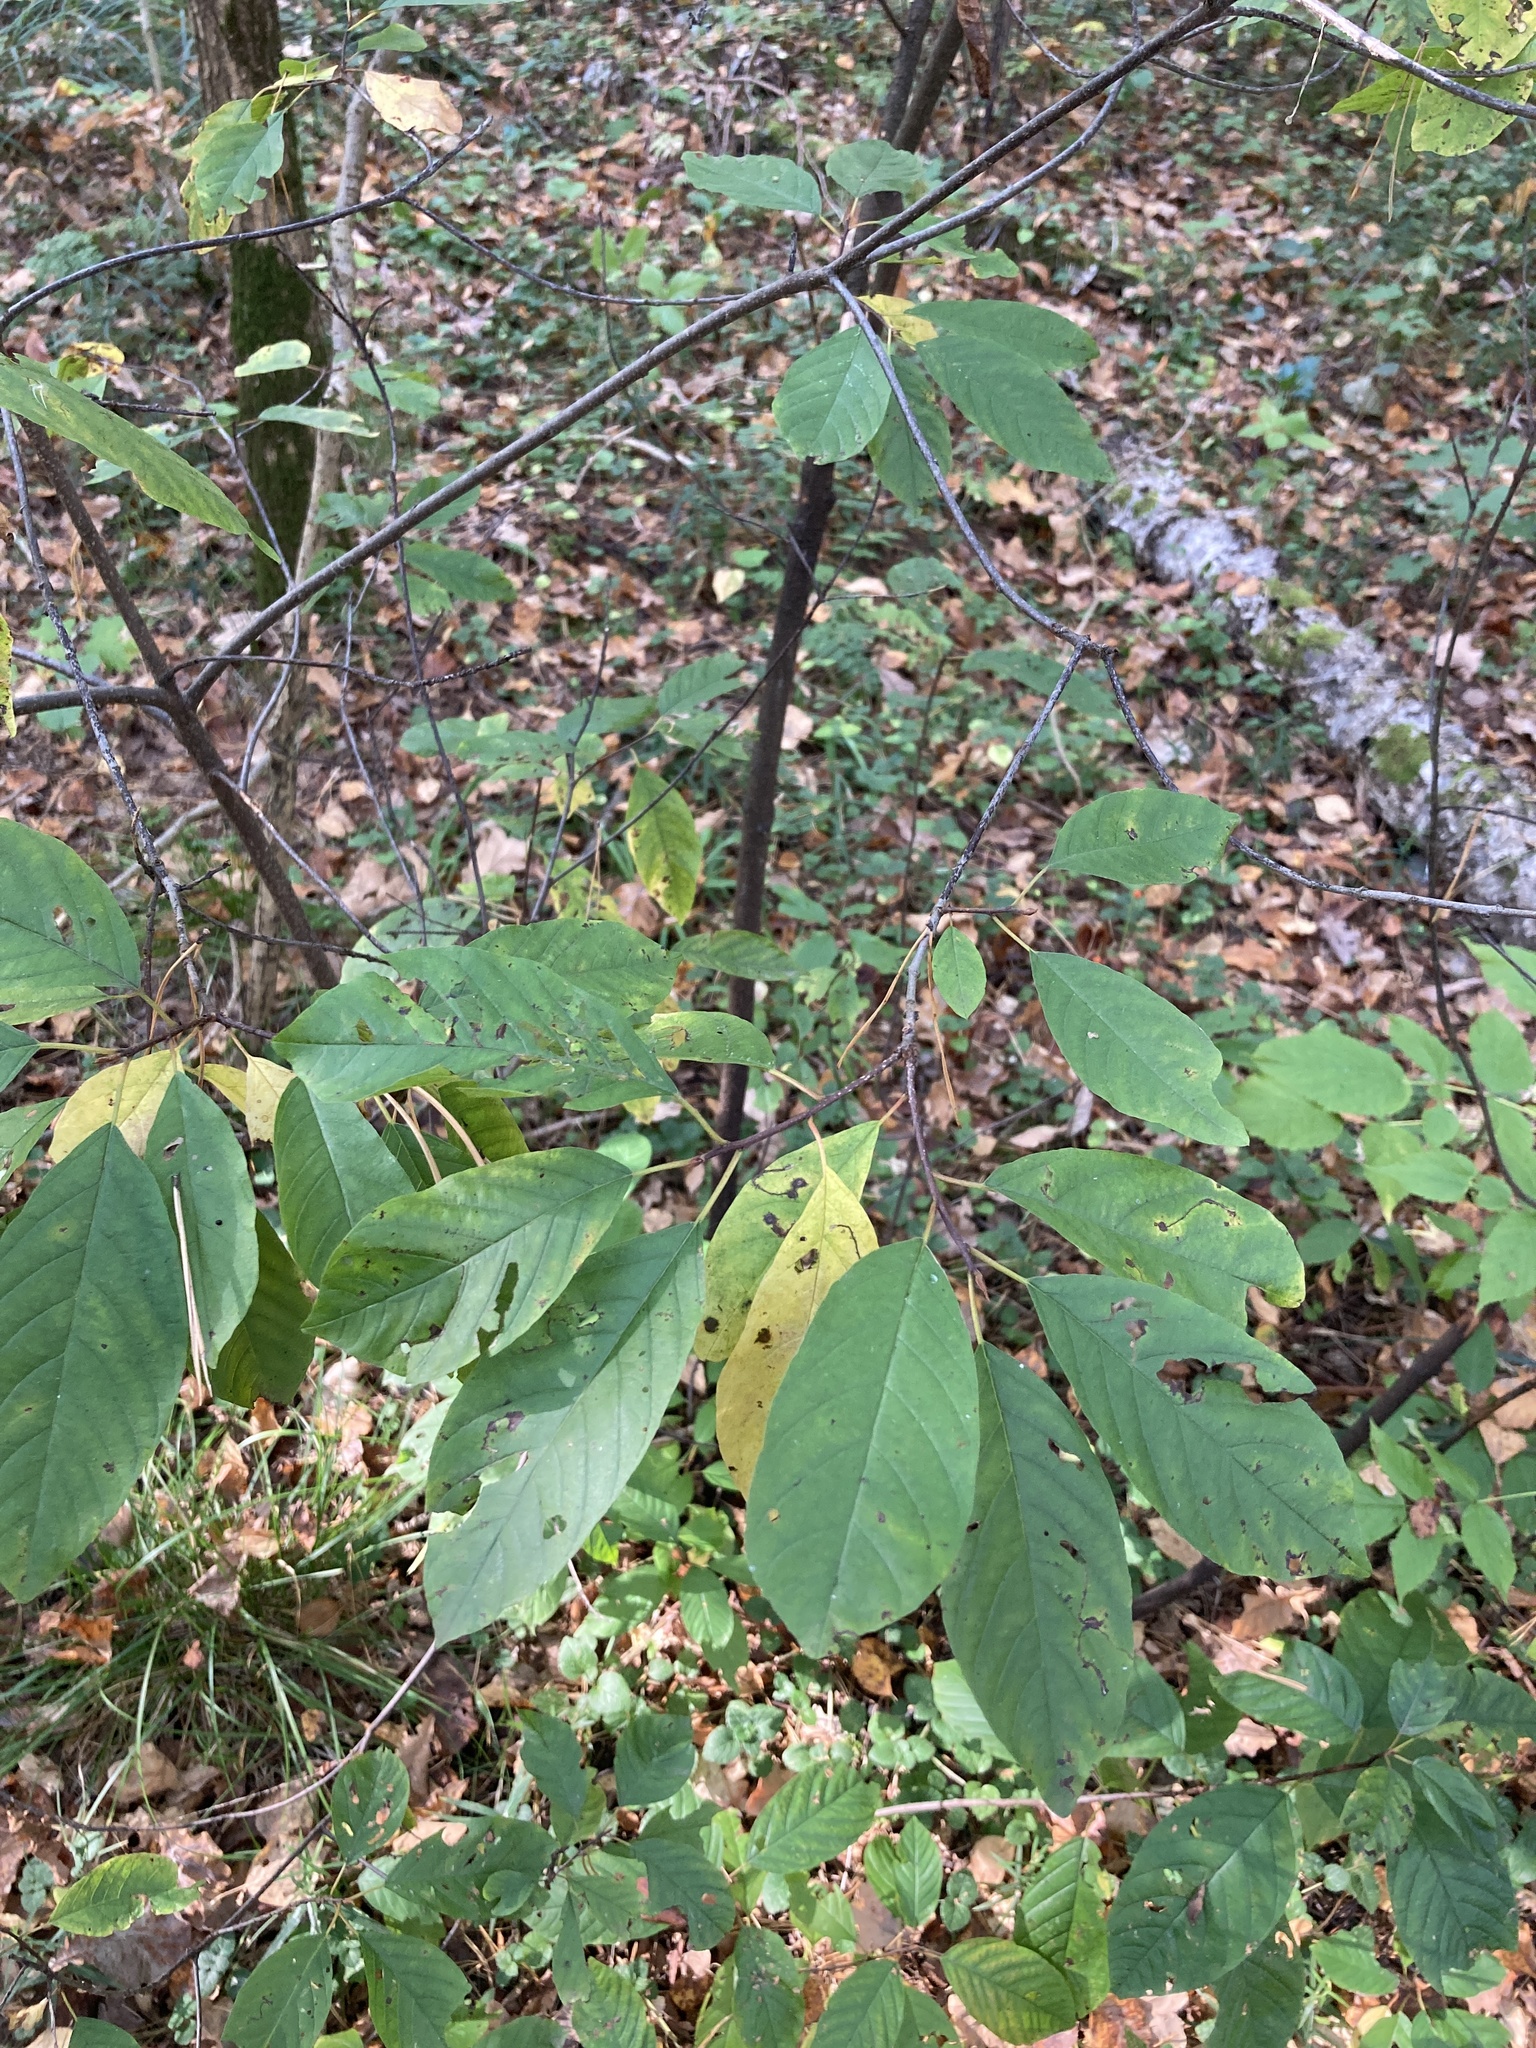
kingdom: Plantae
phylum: Tracheophyta
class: Magnoliopsida
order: Rosales
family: Rhamnaceae
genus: Frangula
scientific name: Frangula alnus
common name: Alder buckthorn
